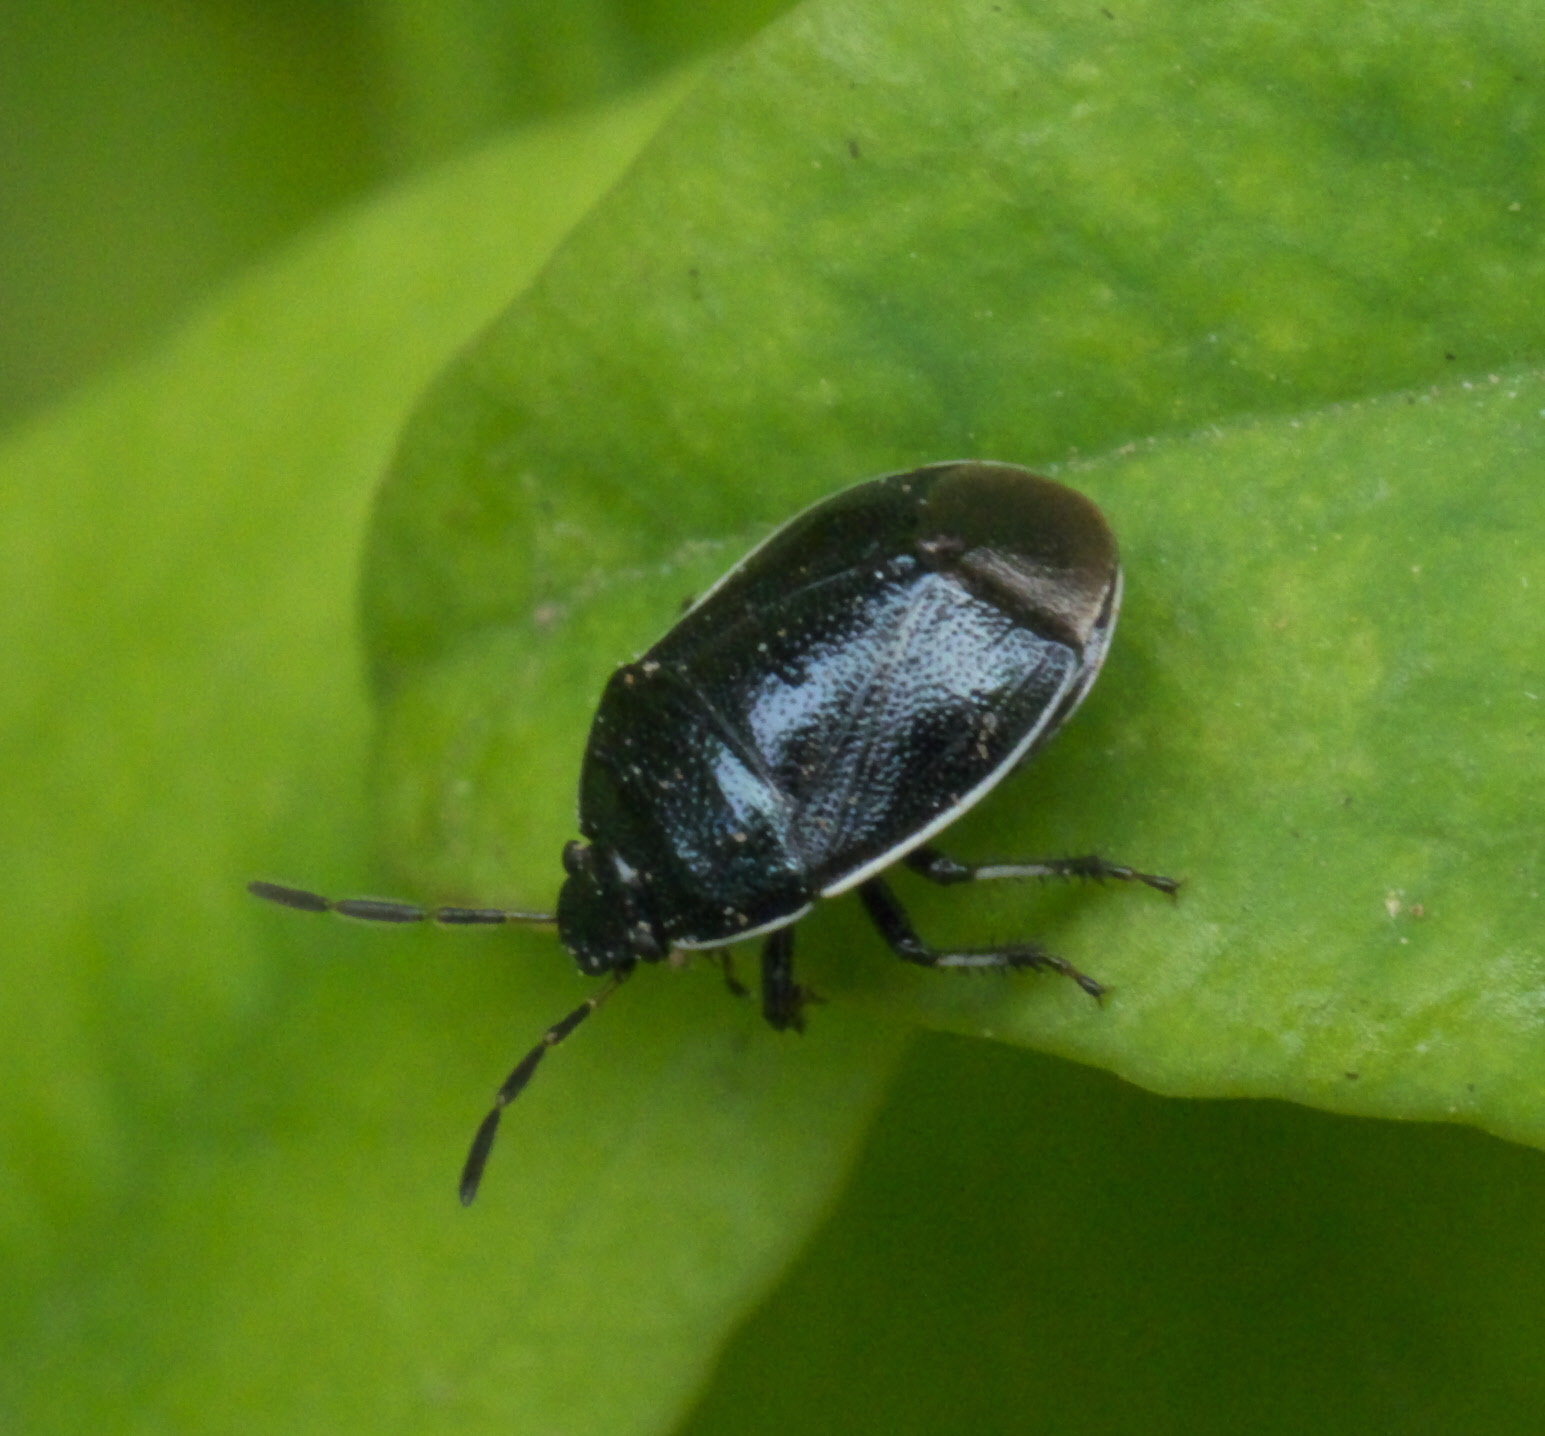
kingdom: Animalia
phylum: Arthropoda
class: Insecta
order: Hemiptera
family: Cydnidae
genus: Sehirus
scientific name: Sehirus cinctus
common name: White-margined burrower bug
